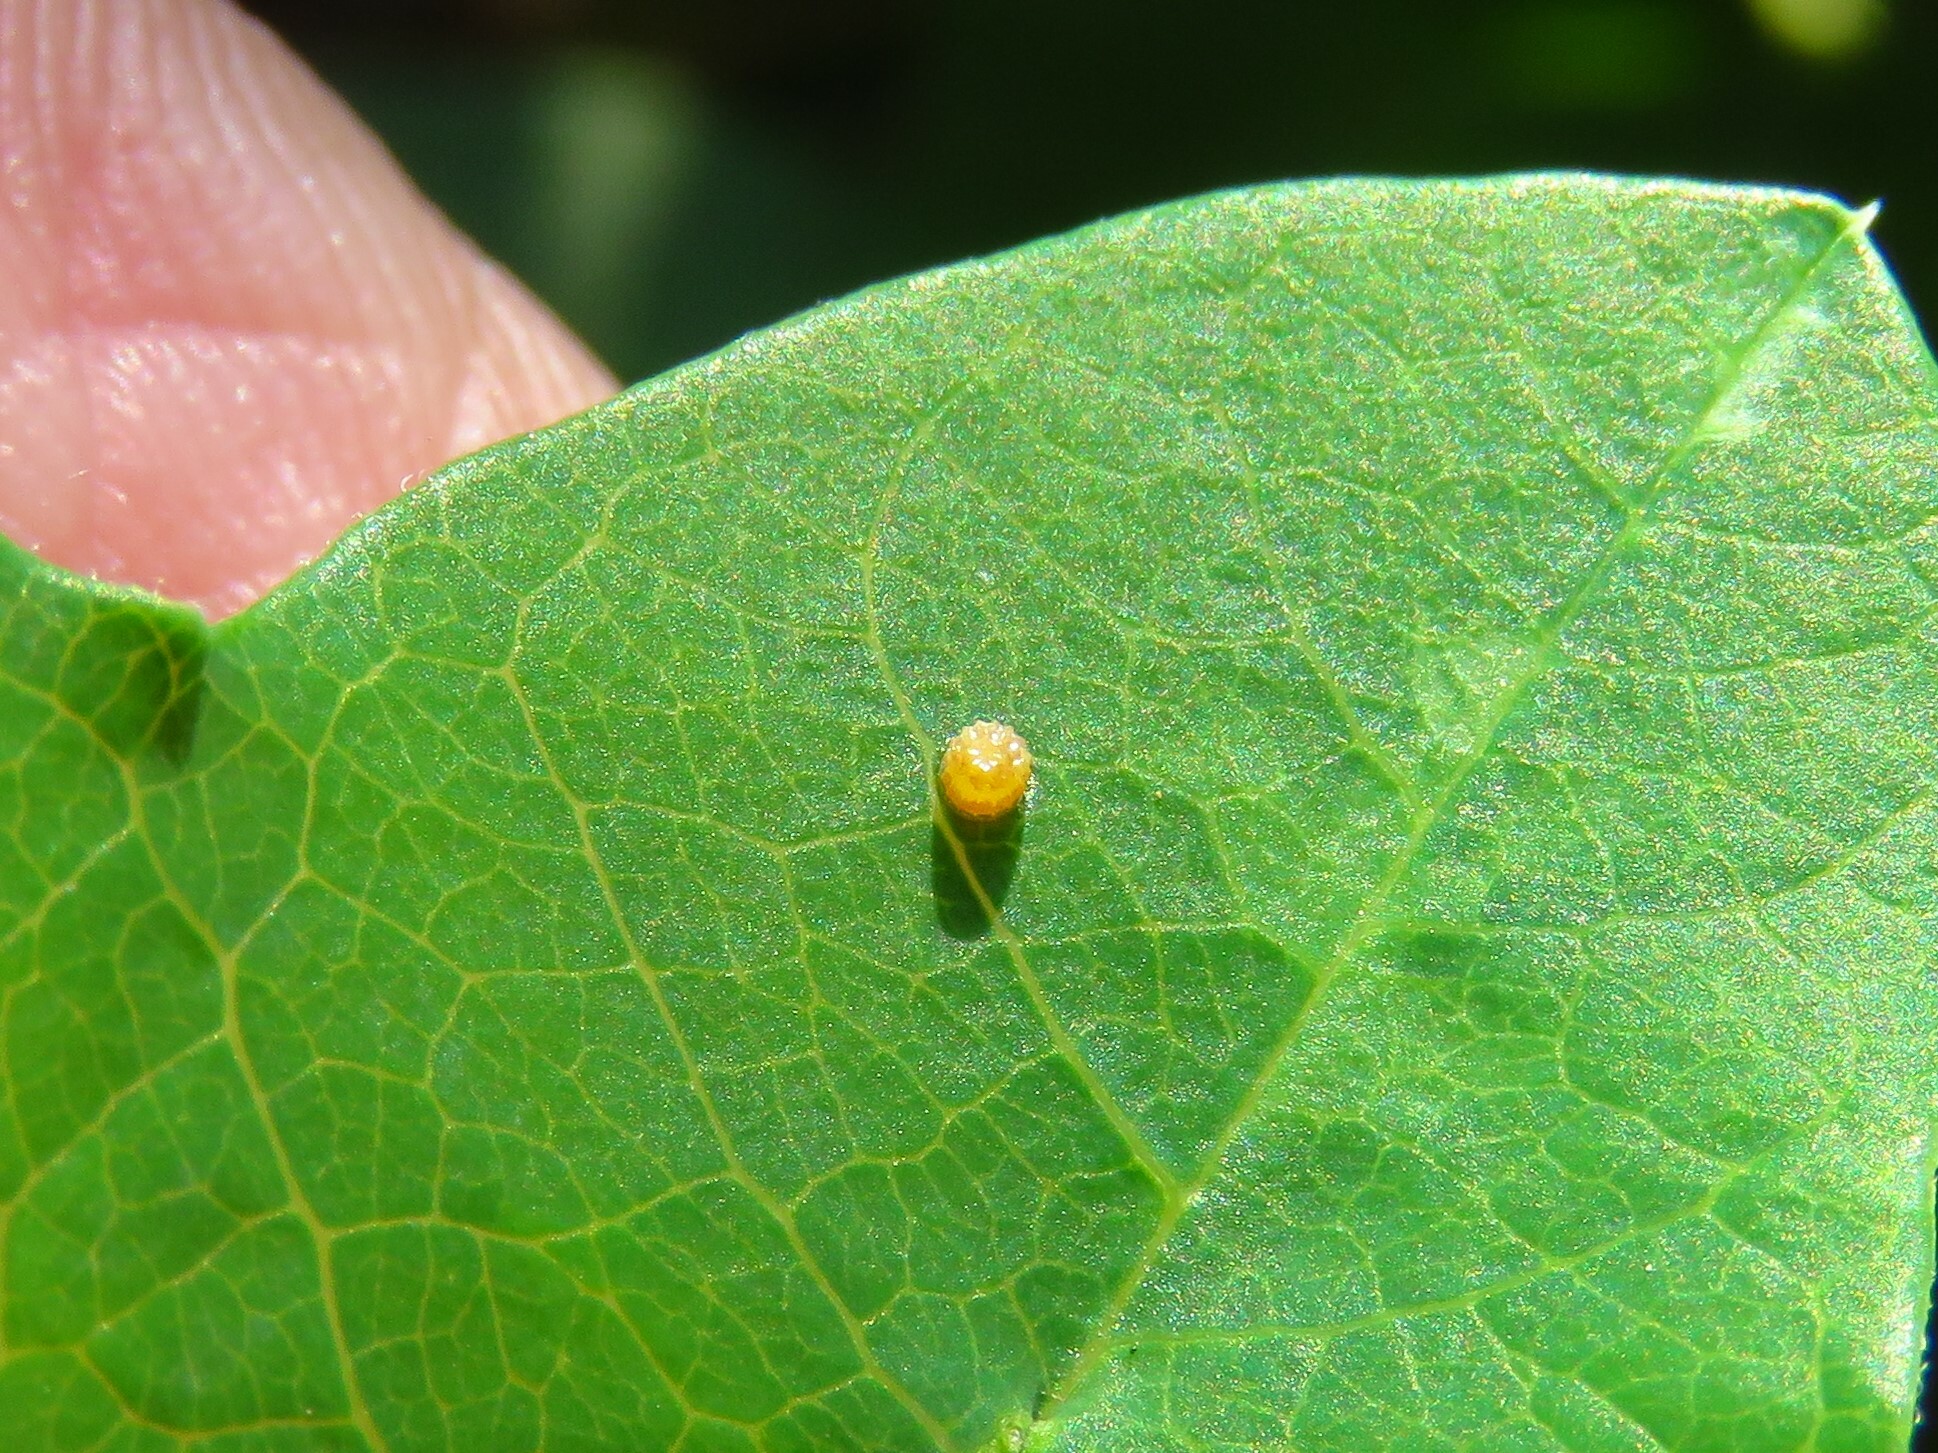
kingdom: Animalia
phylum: Arthropoda
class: Insecta
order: Lepidoptera
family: Nymphalidae
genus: Dione
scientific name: Dione vanillae
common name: Gulf fritillary
